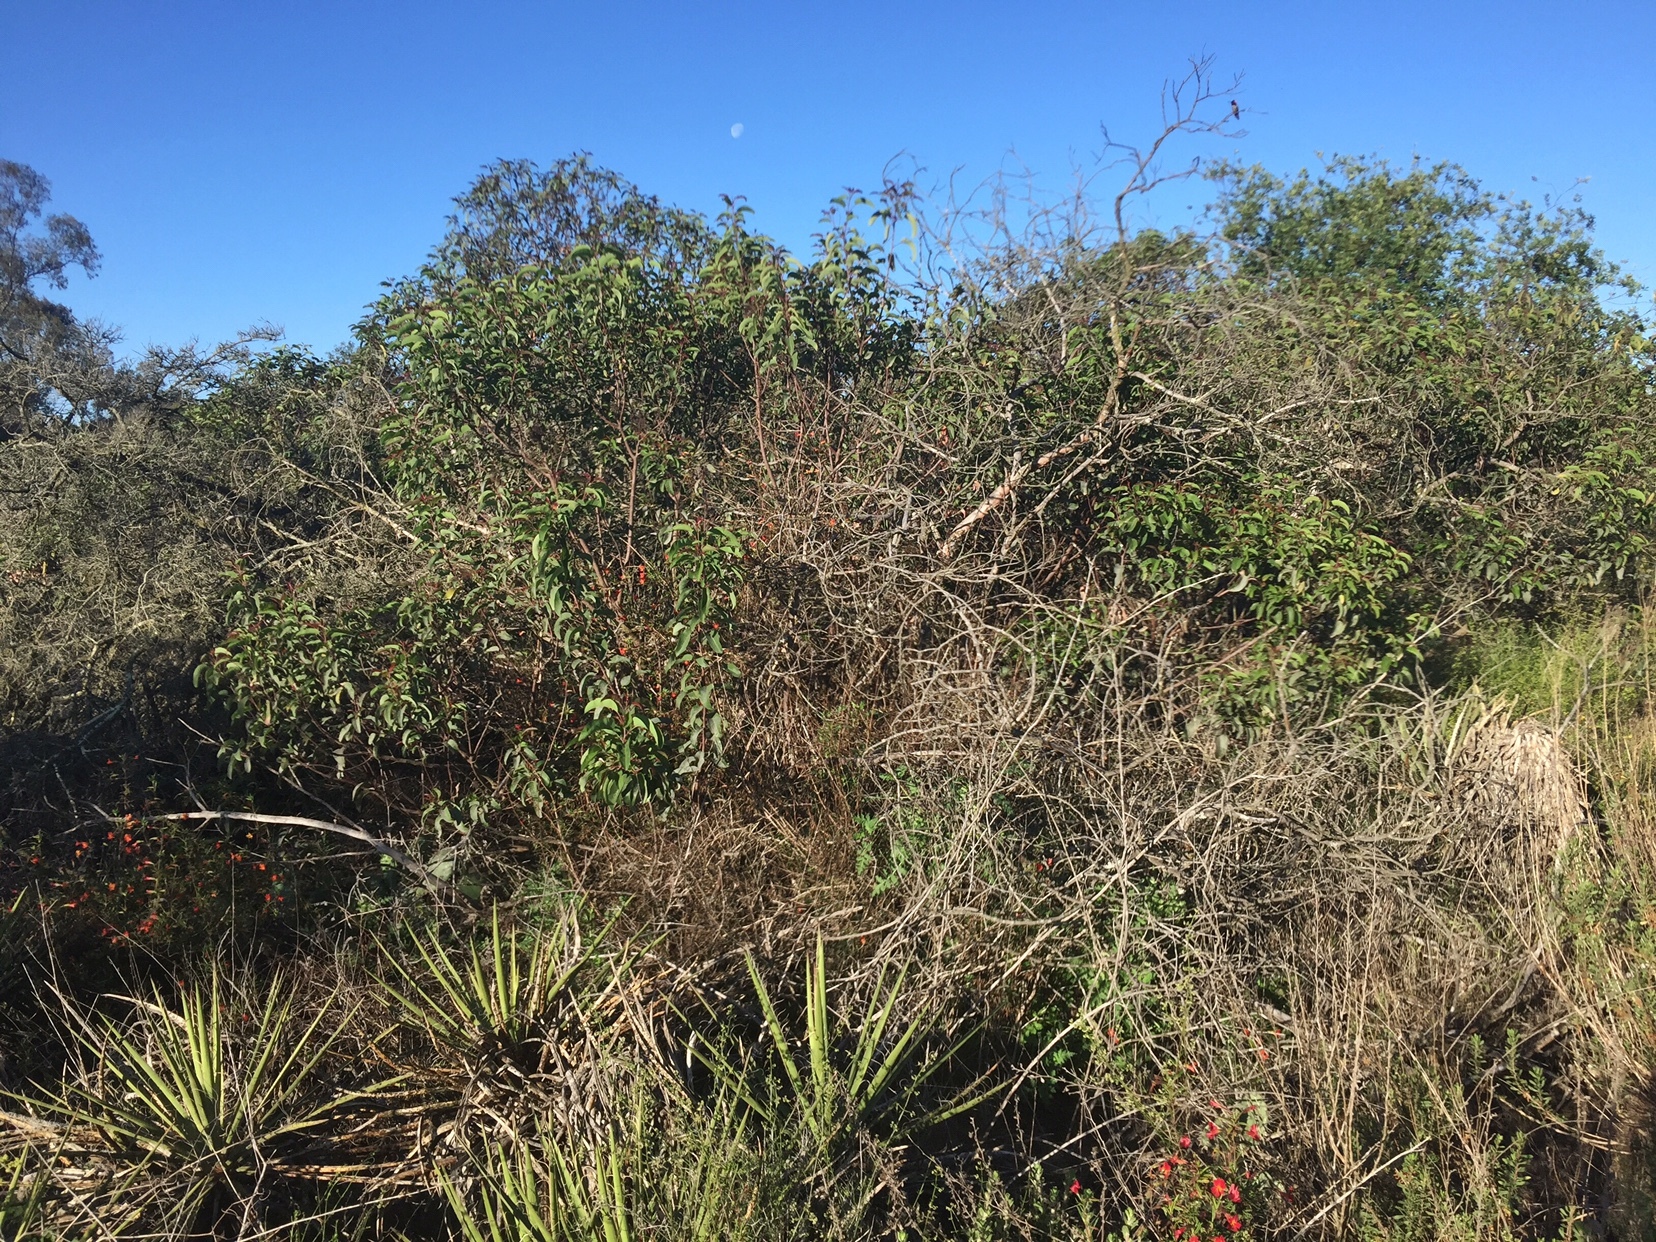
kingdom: Plantae
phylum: Tracheophyta
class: Magnoliopsida
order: Sapindales
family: Anacardiaceae
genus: Malosma
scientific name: Malosma laurina
